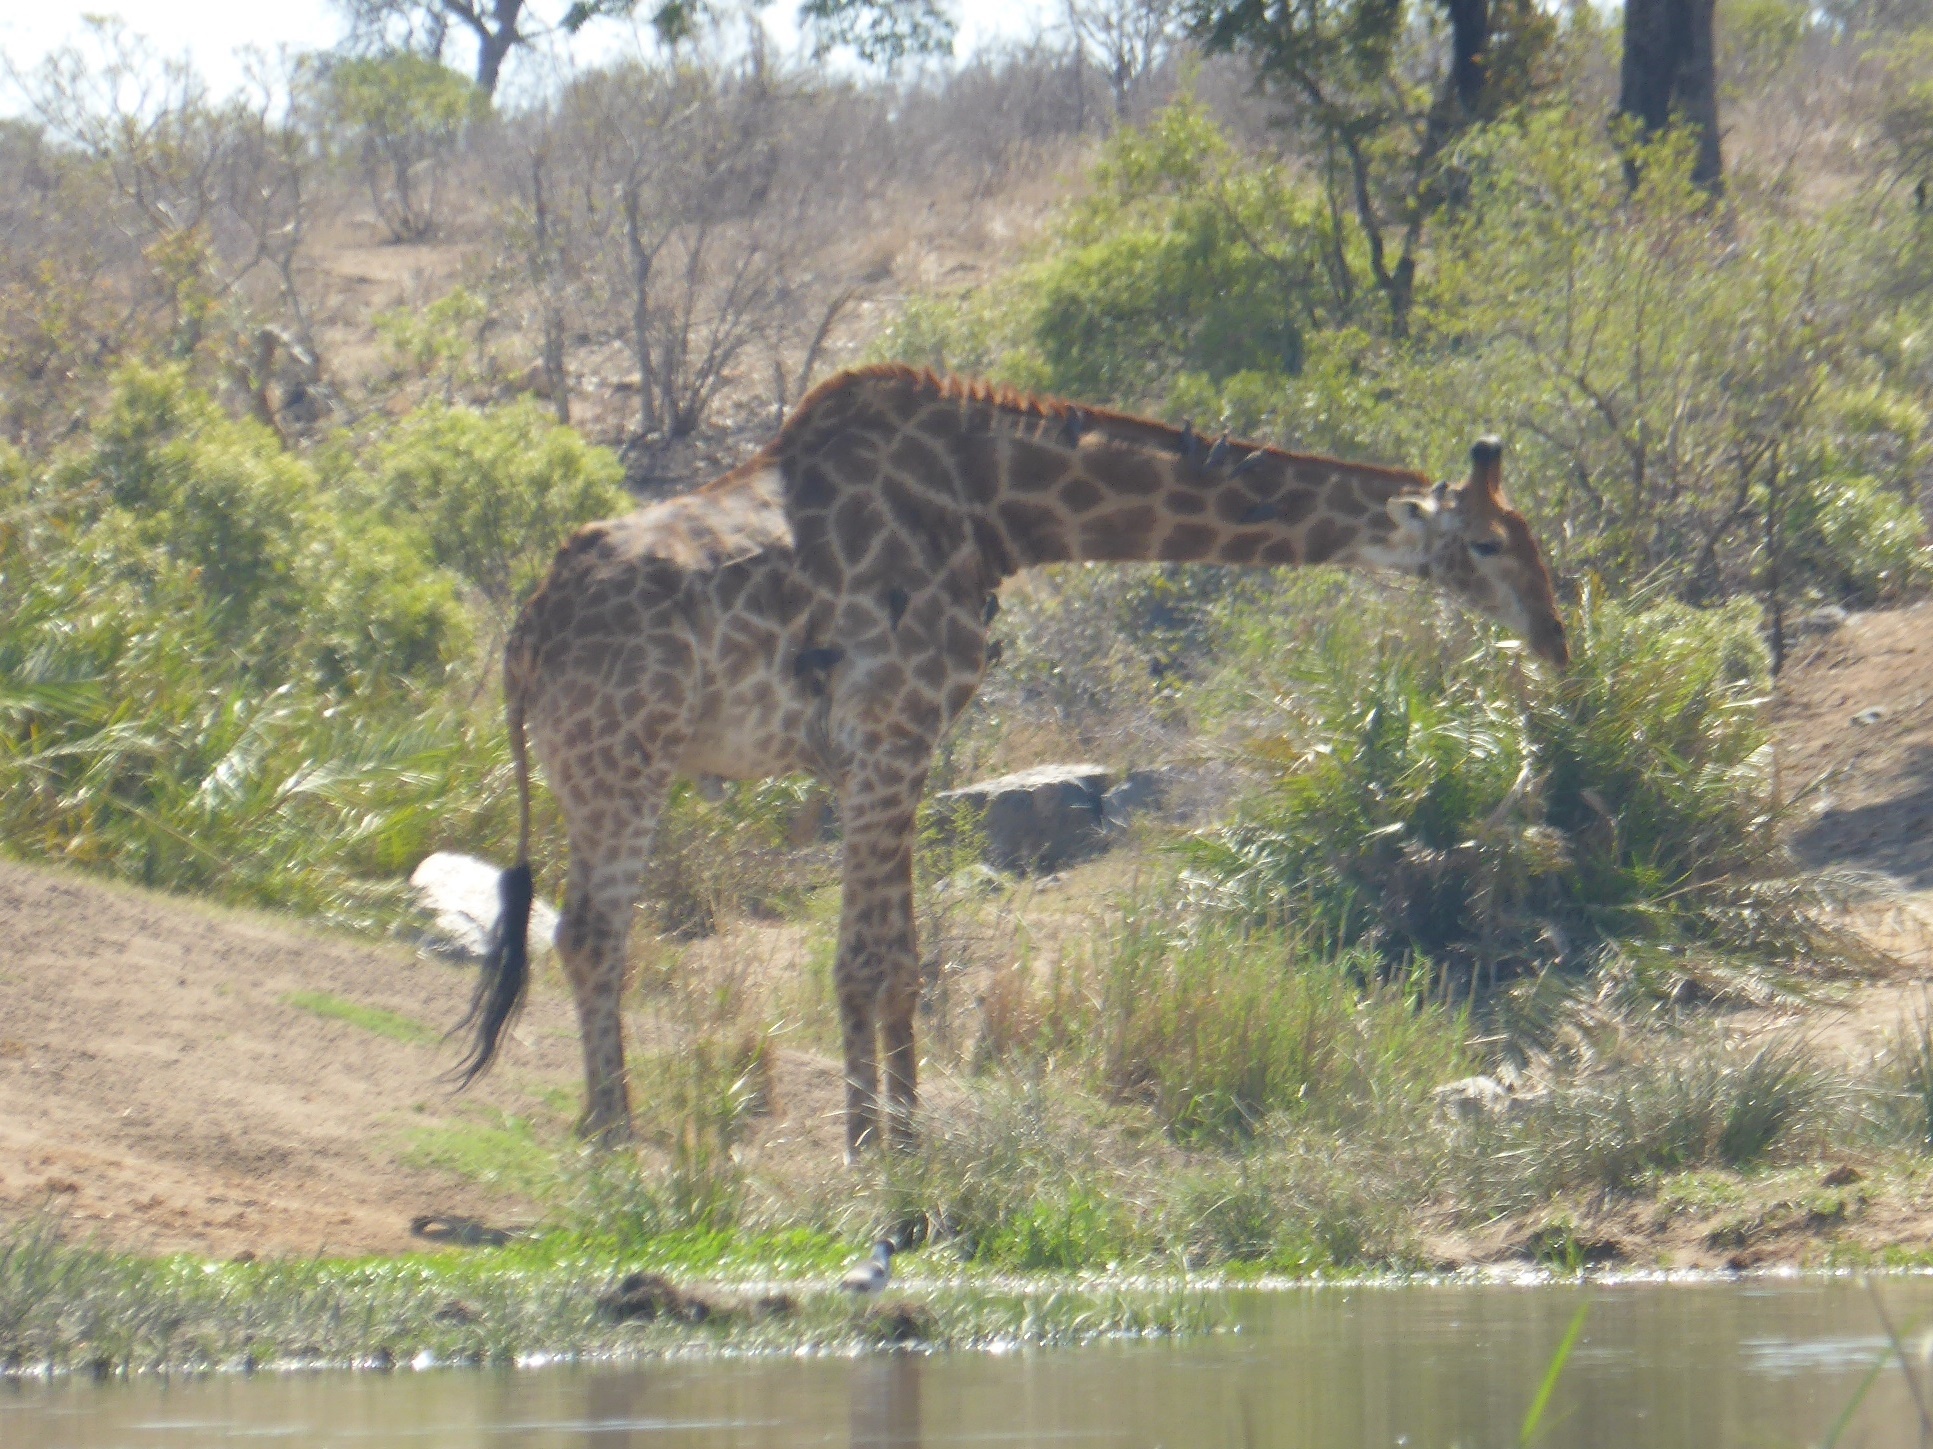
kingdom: Animalia
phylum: Chordata
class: Mammalia
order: Artiodactyla
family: Giraffidae
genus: Giraffa
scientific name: Giraffa giraffa
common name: Southern giraffe
